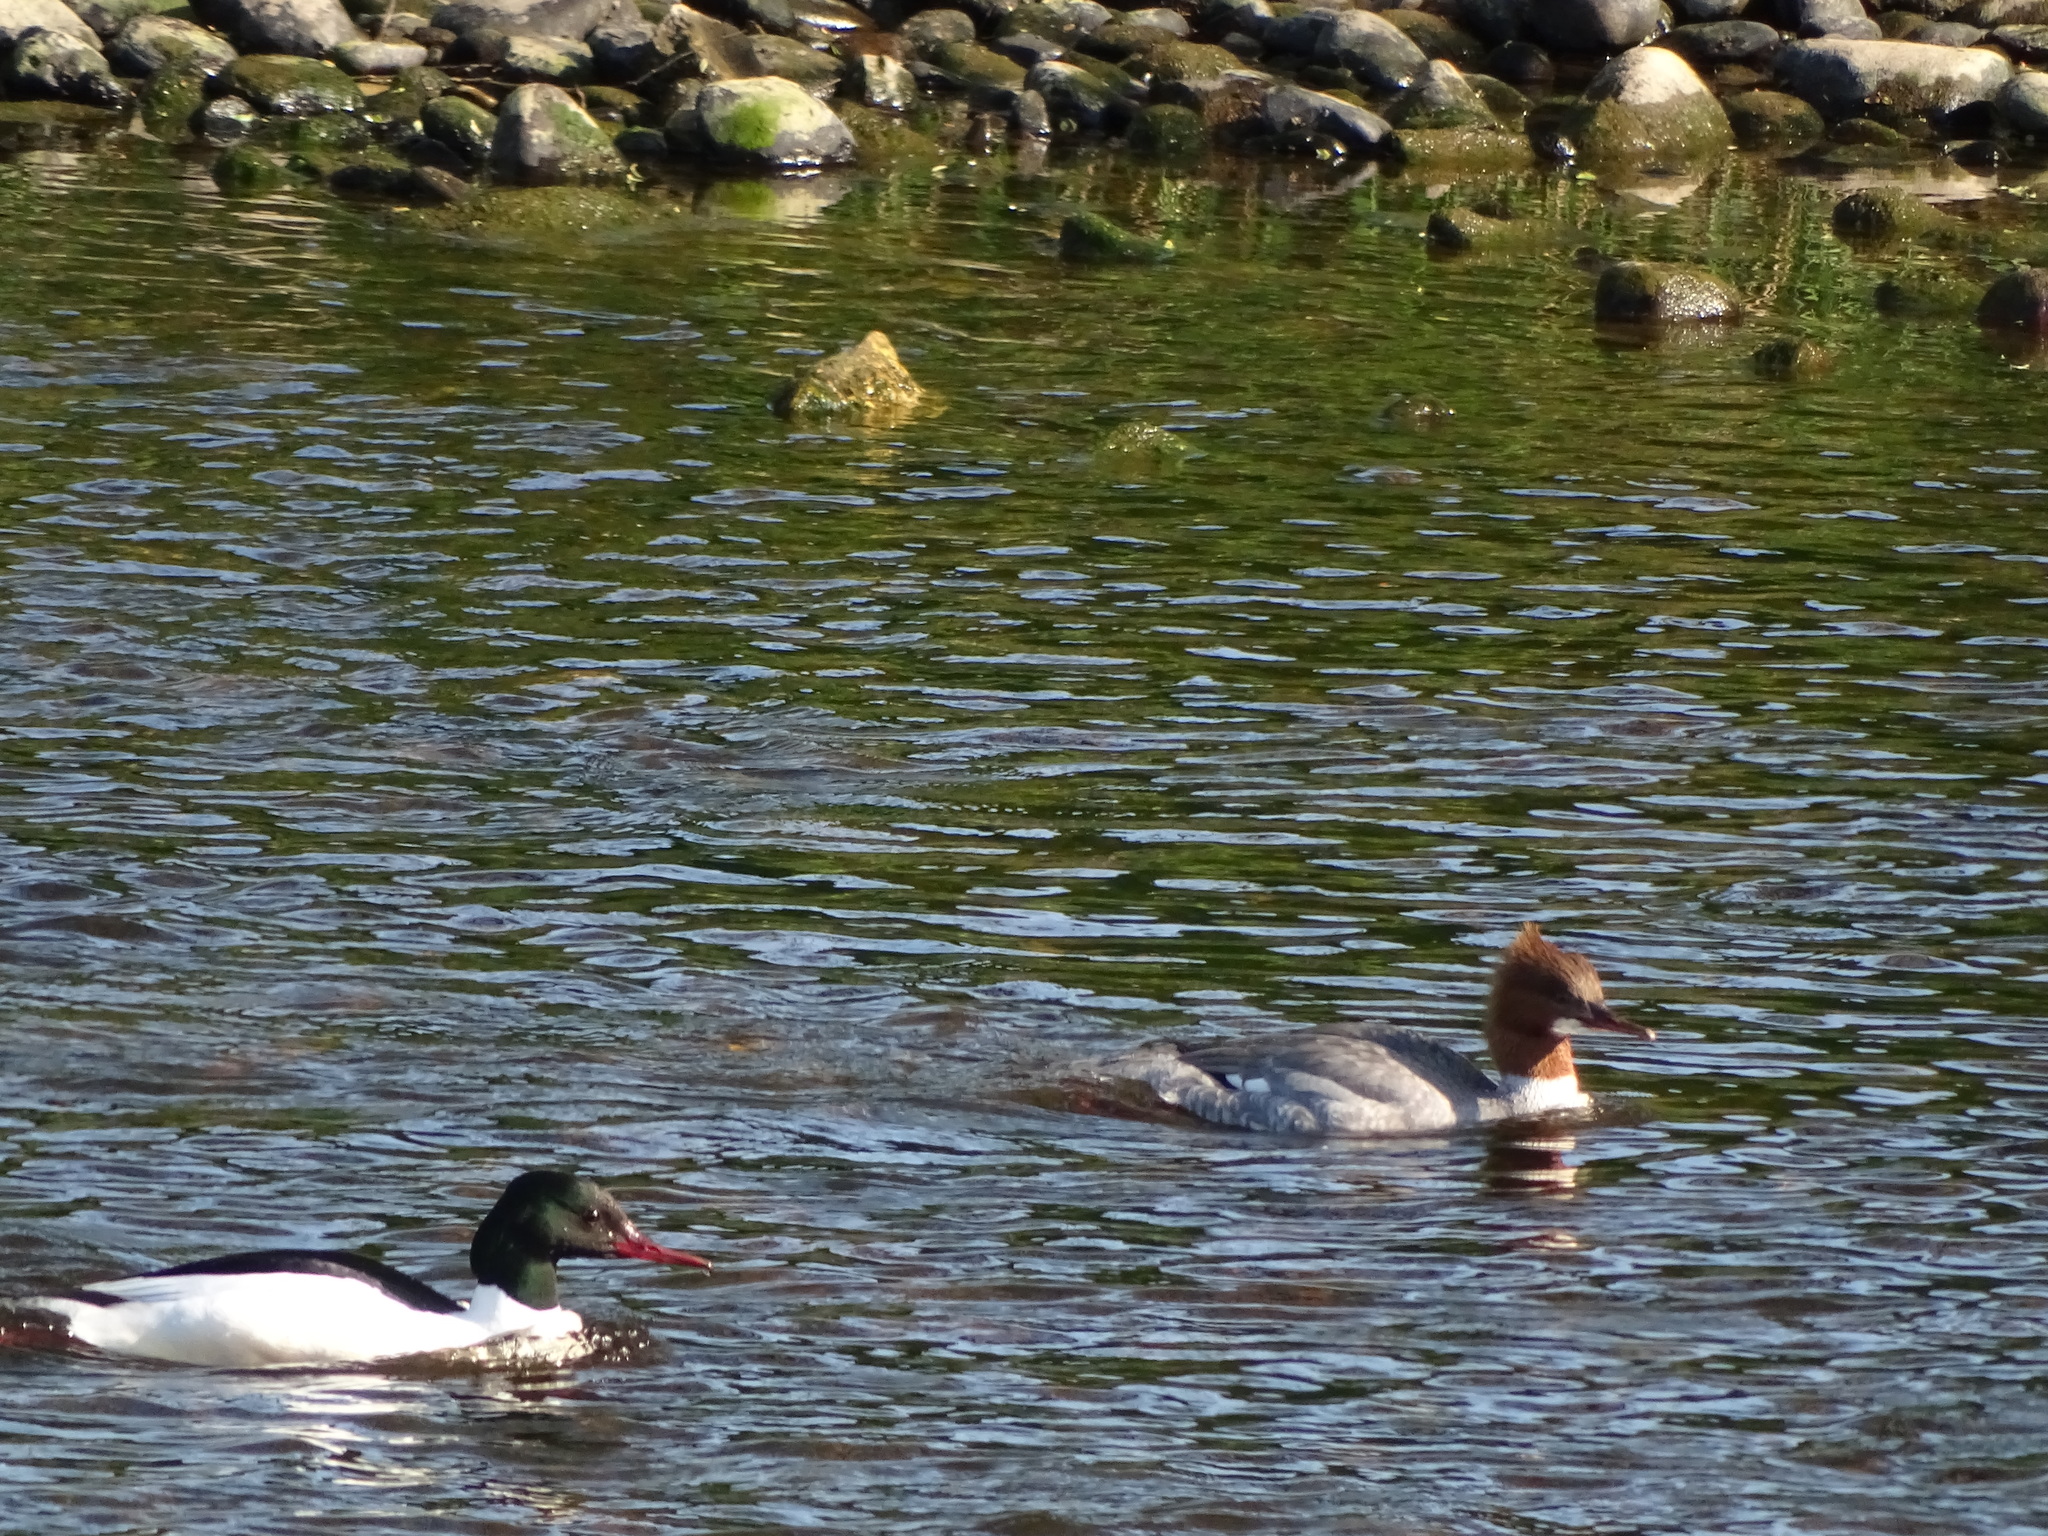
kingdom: Animalia
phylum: Chordata
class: Aves
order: Anseriformes
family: Anatidae
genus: Mergus
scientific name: Mergus merganser
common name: Common merganser
